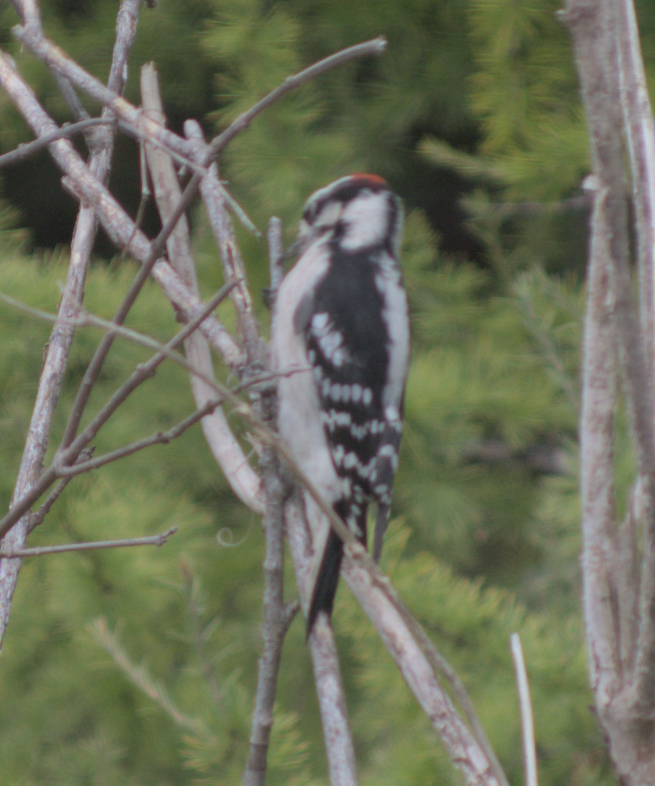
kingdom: Animalia
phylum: Chordata
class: Aves
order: Piciformes
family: Picidae
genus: Dryobates
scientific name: Dryobates pubescens
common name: Downy woodpecker
